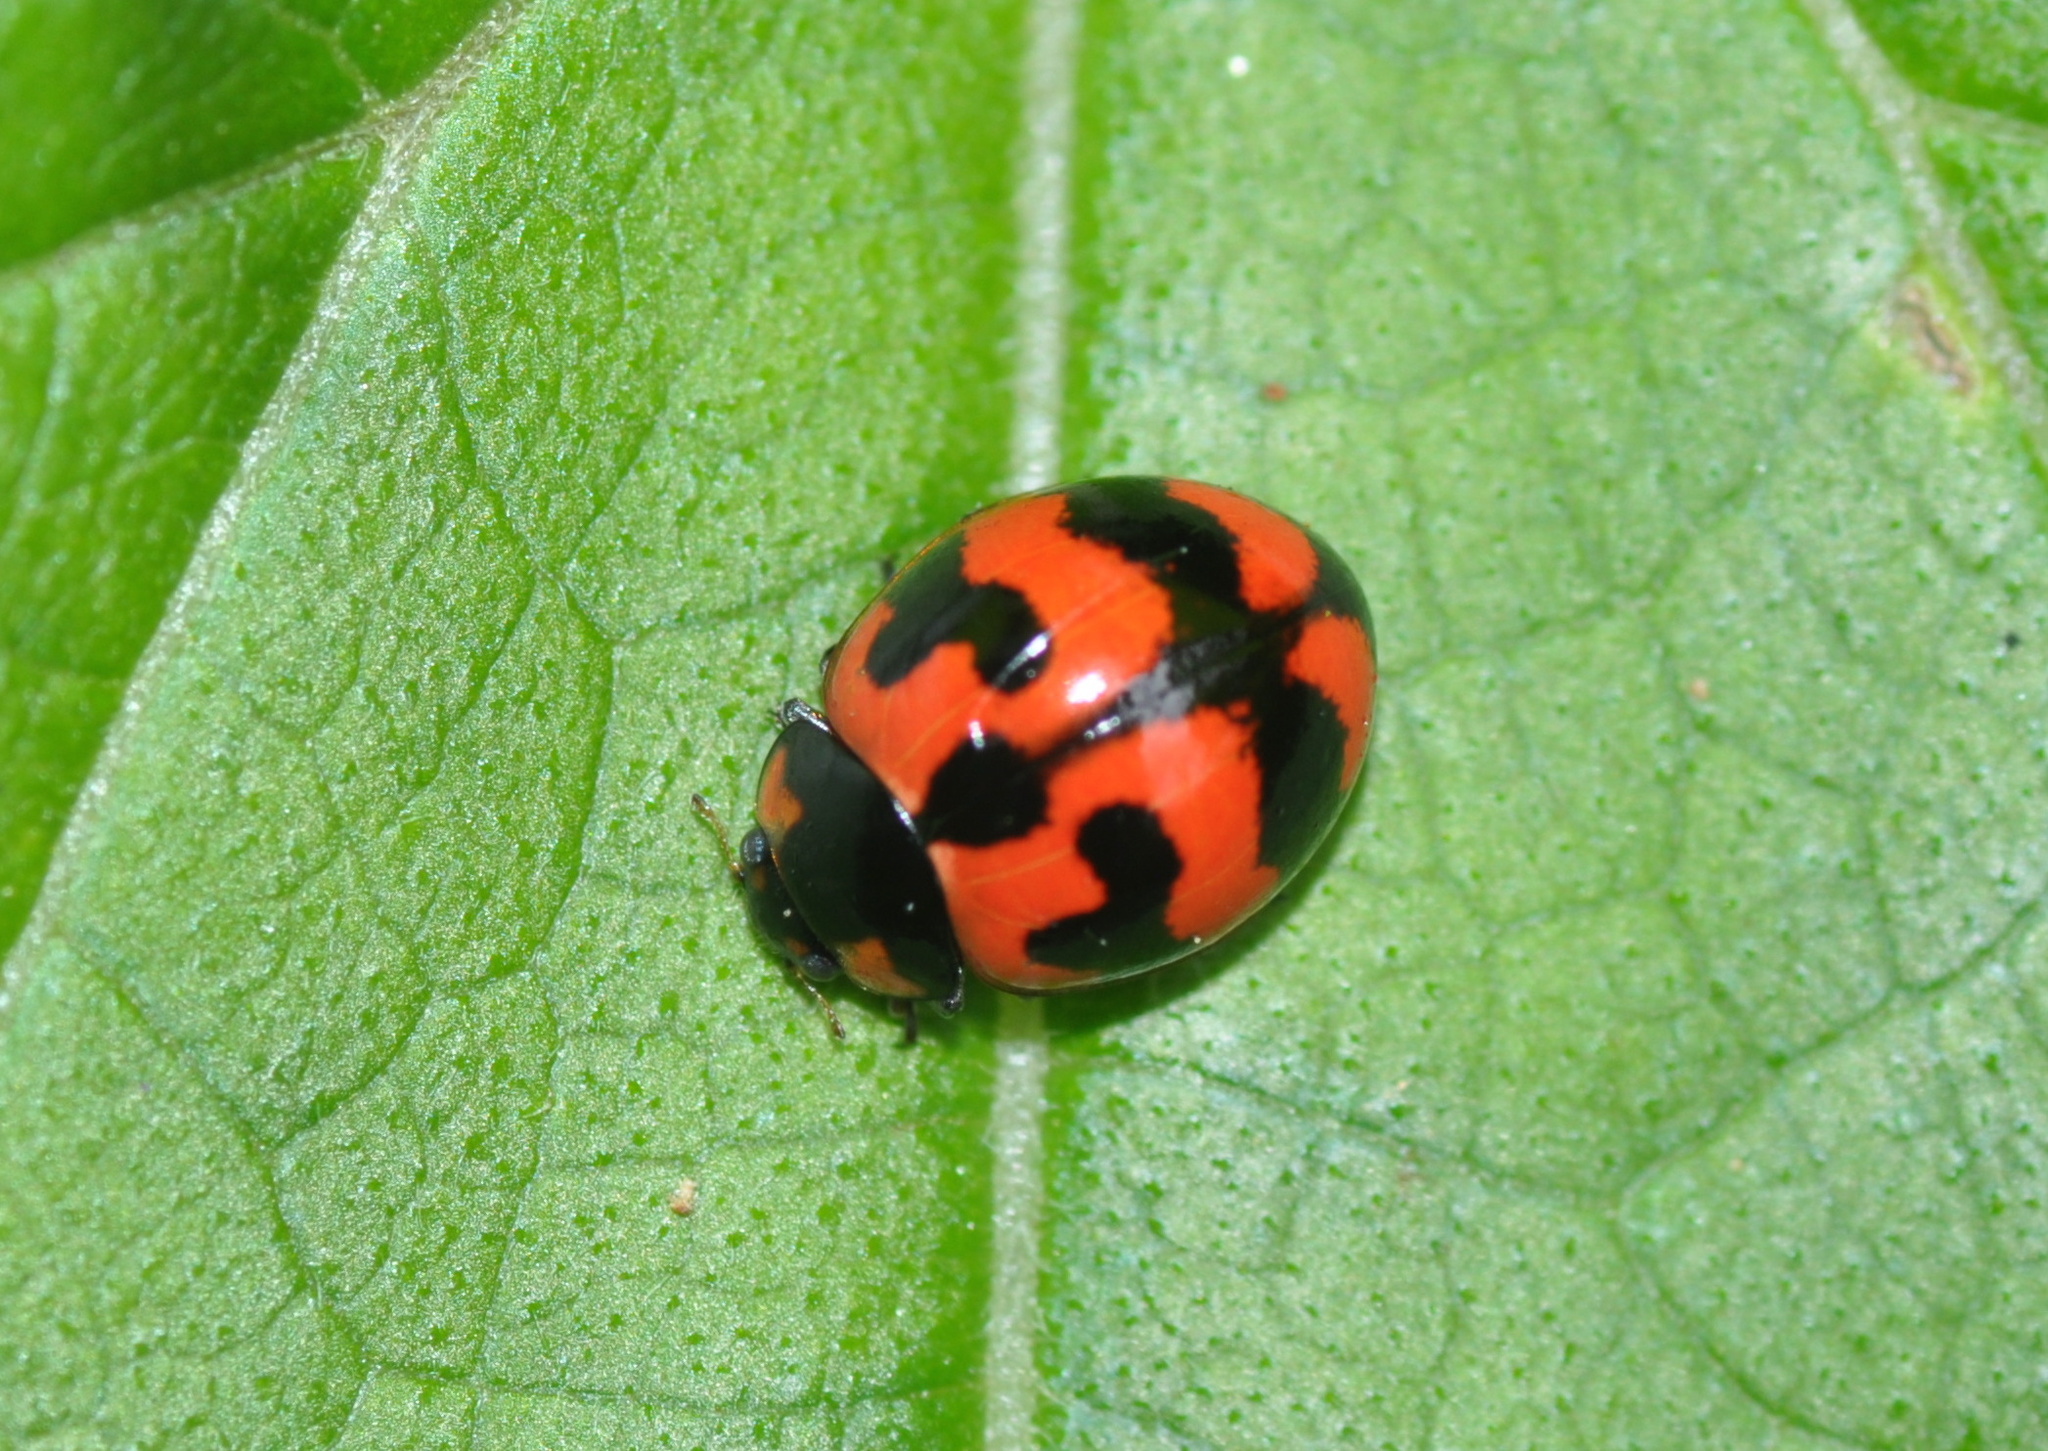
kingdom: Animalia
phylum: Arthropoda
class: Insecta
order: Coleoptera
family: Coccinellidae
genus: Coccinella
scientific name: Coccinella transversalis
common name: Transverse lady beetle
